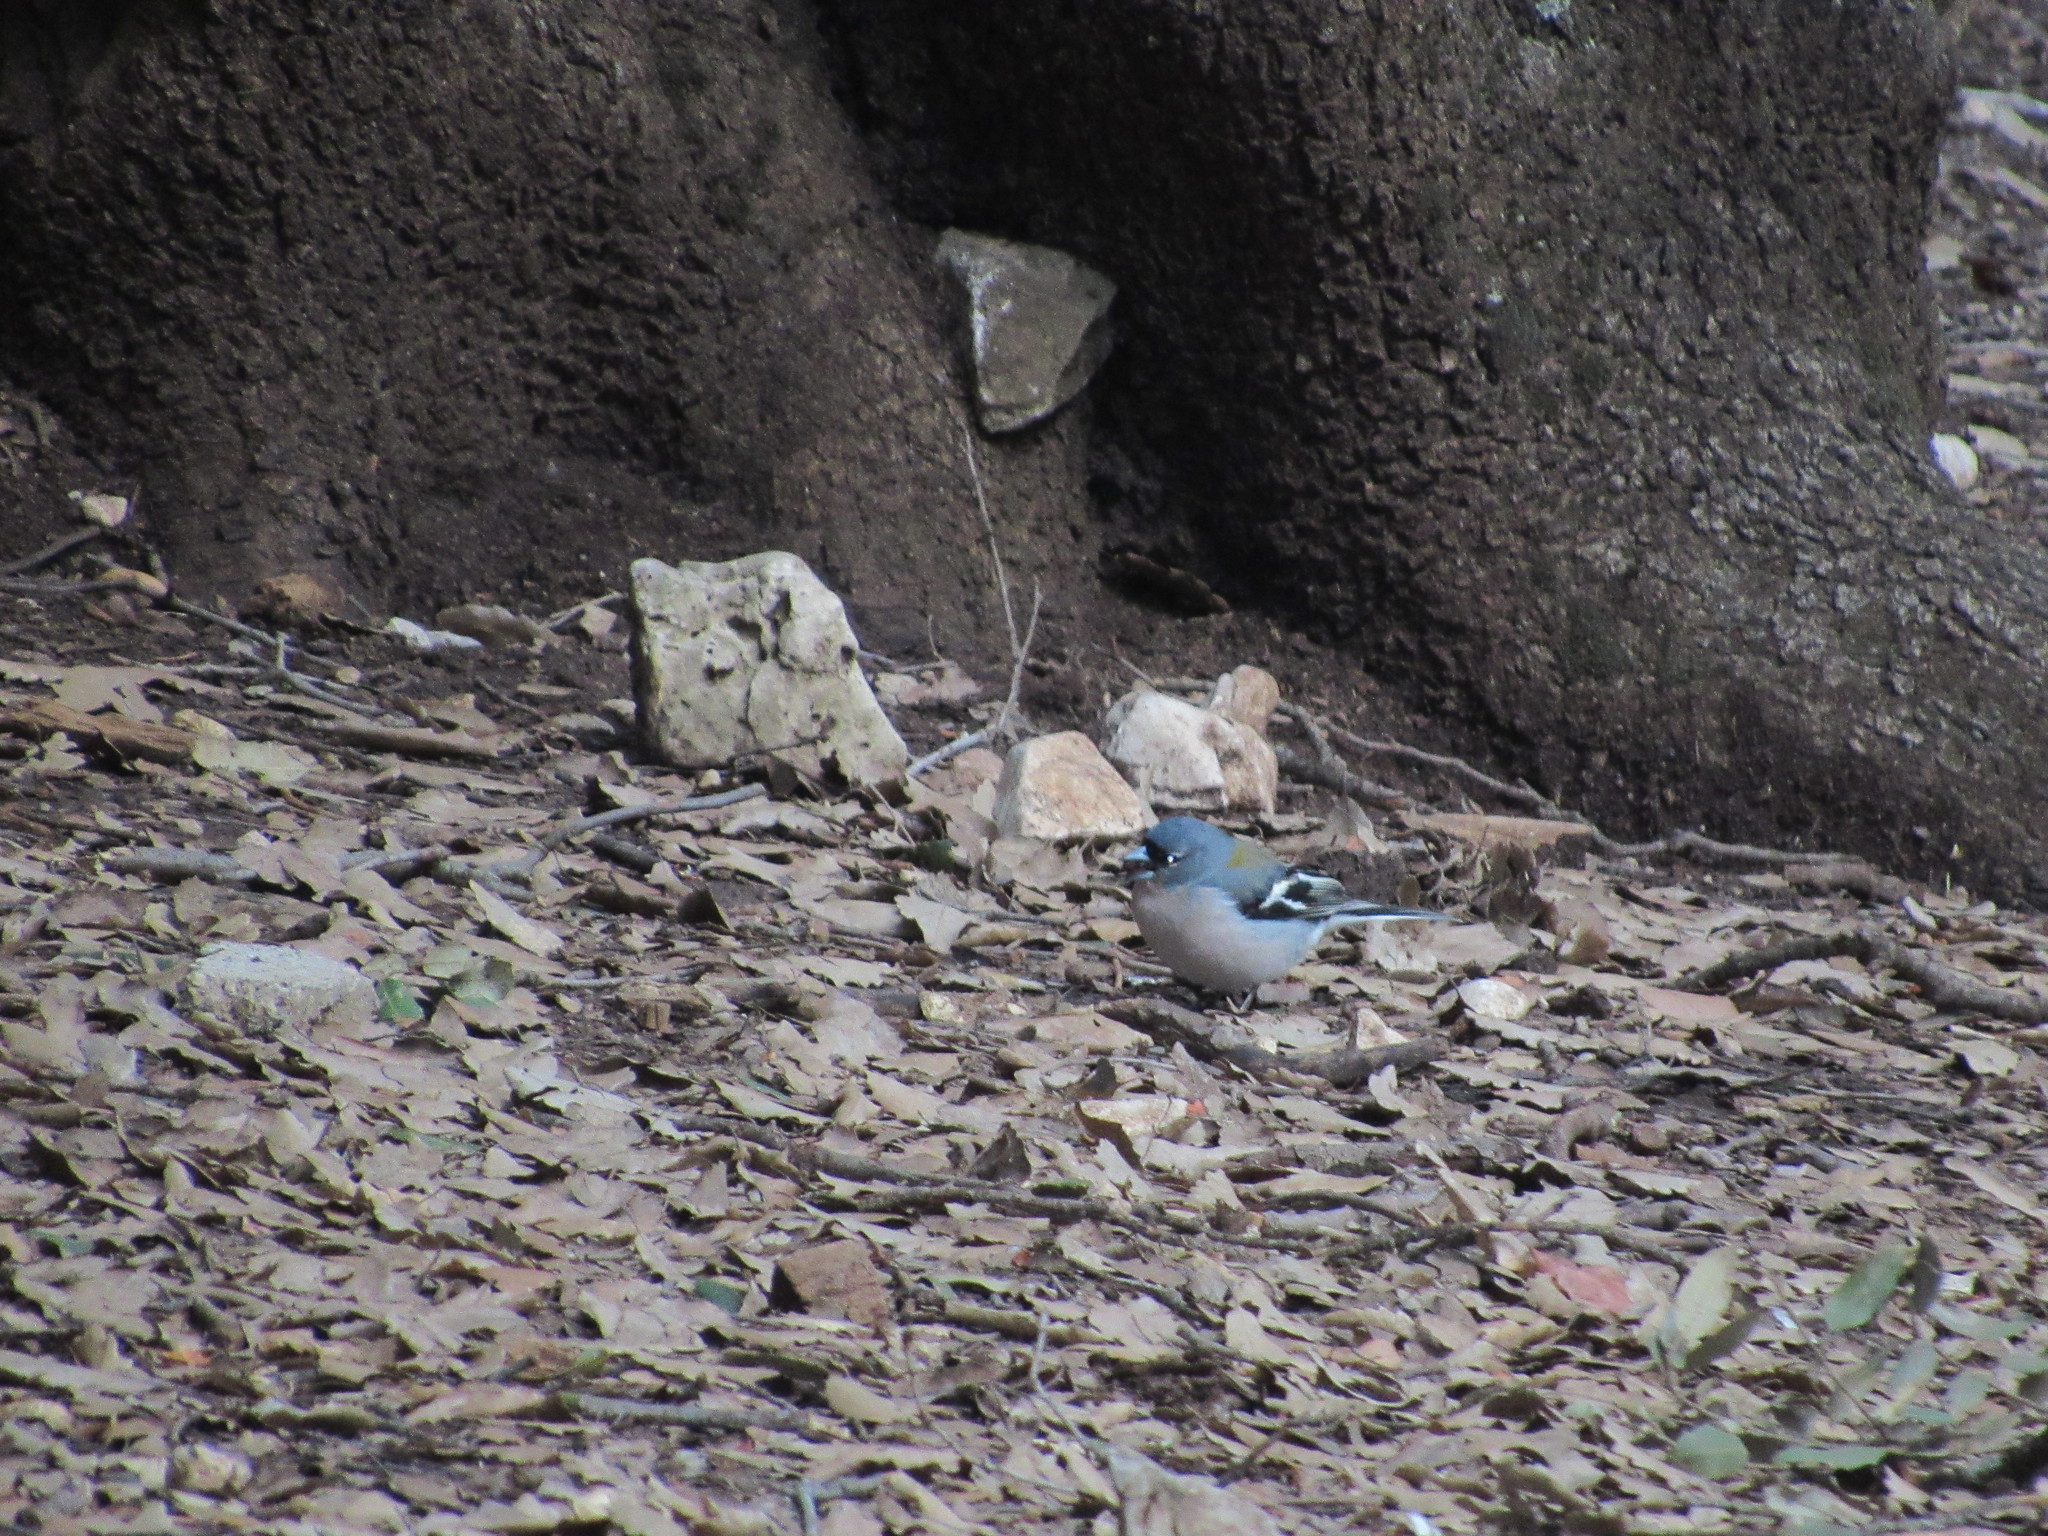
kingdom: Animalia
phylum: Chordata
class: Aves
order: Passeriformes
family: Fringillidae
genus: Fringilla
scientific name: Fringilla spodiogenys
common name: African chaffinch
